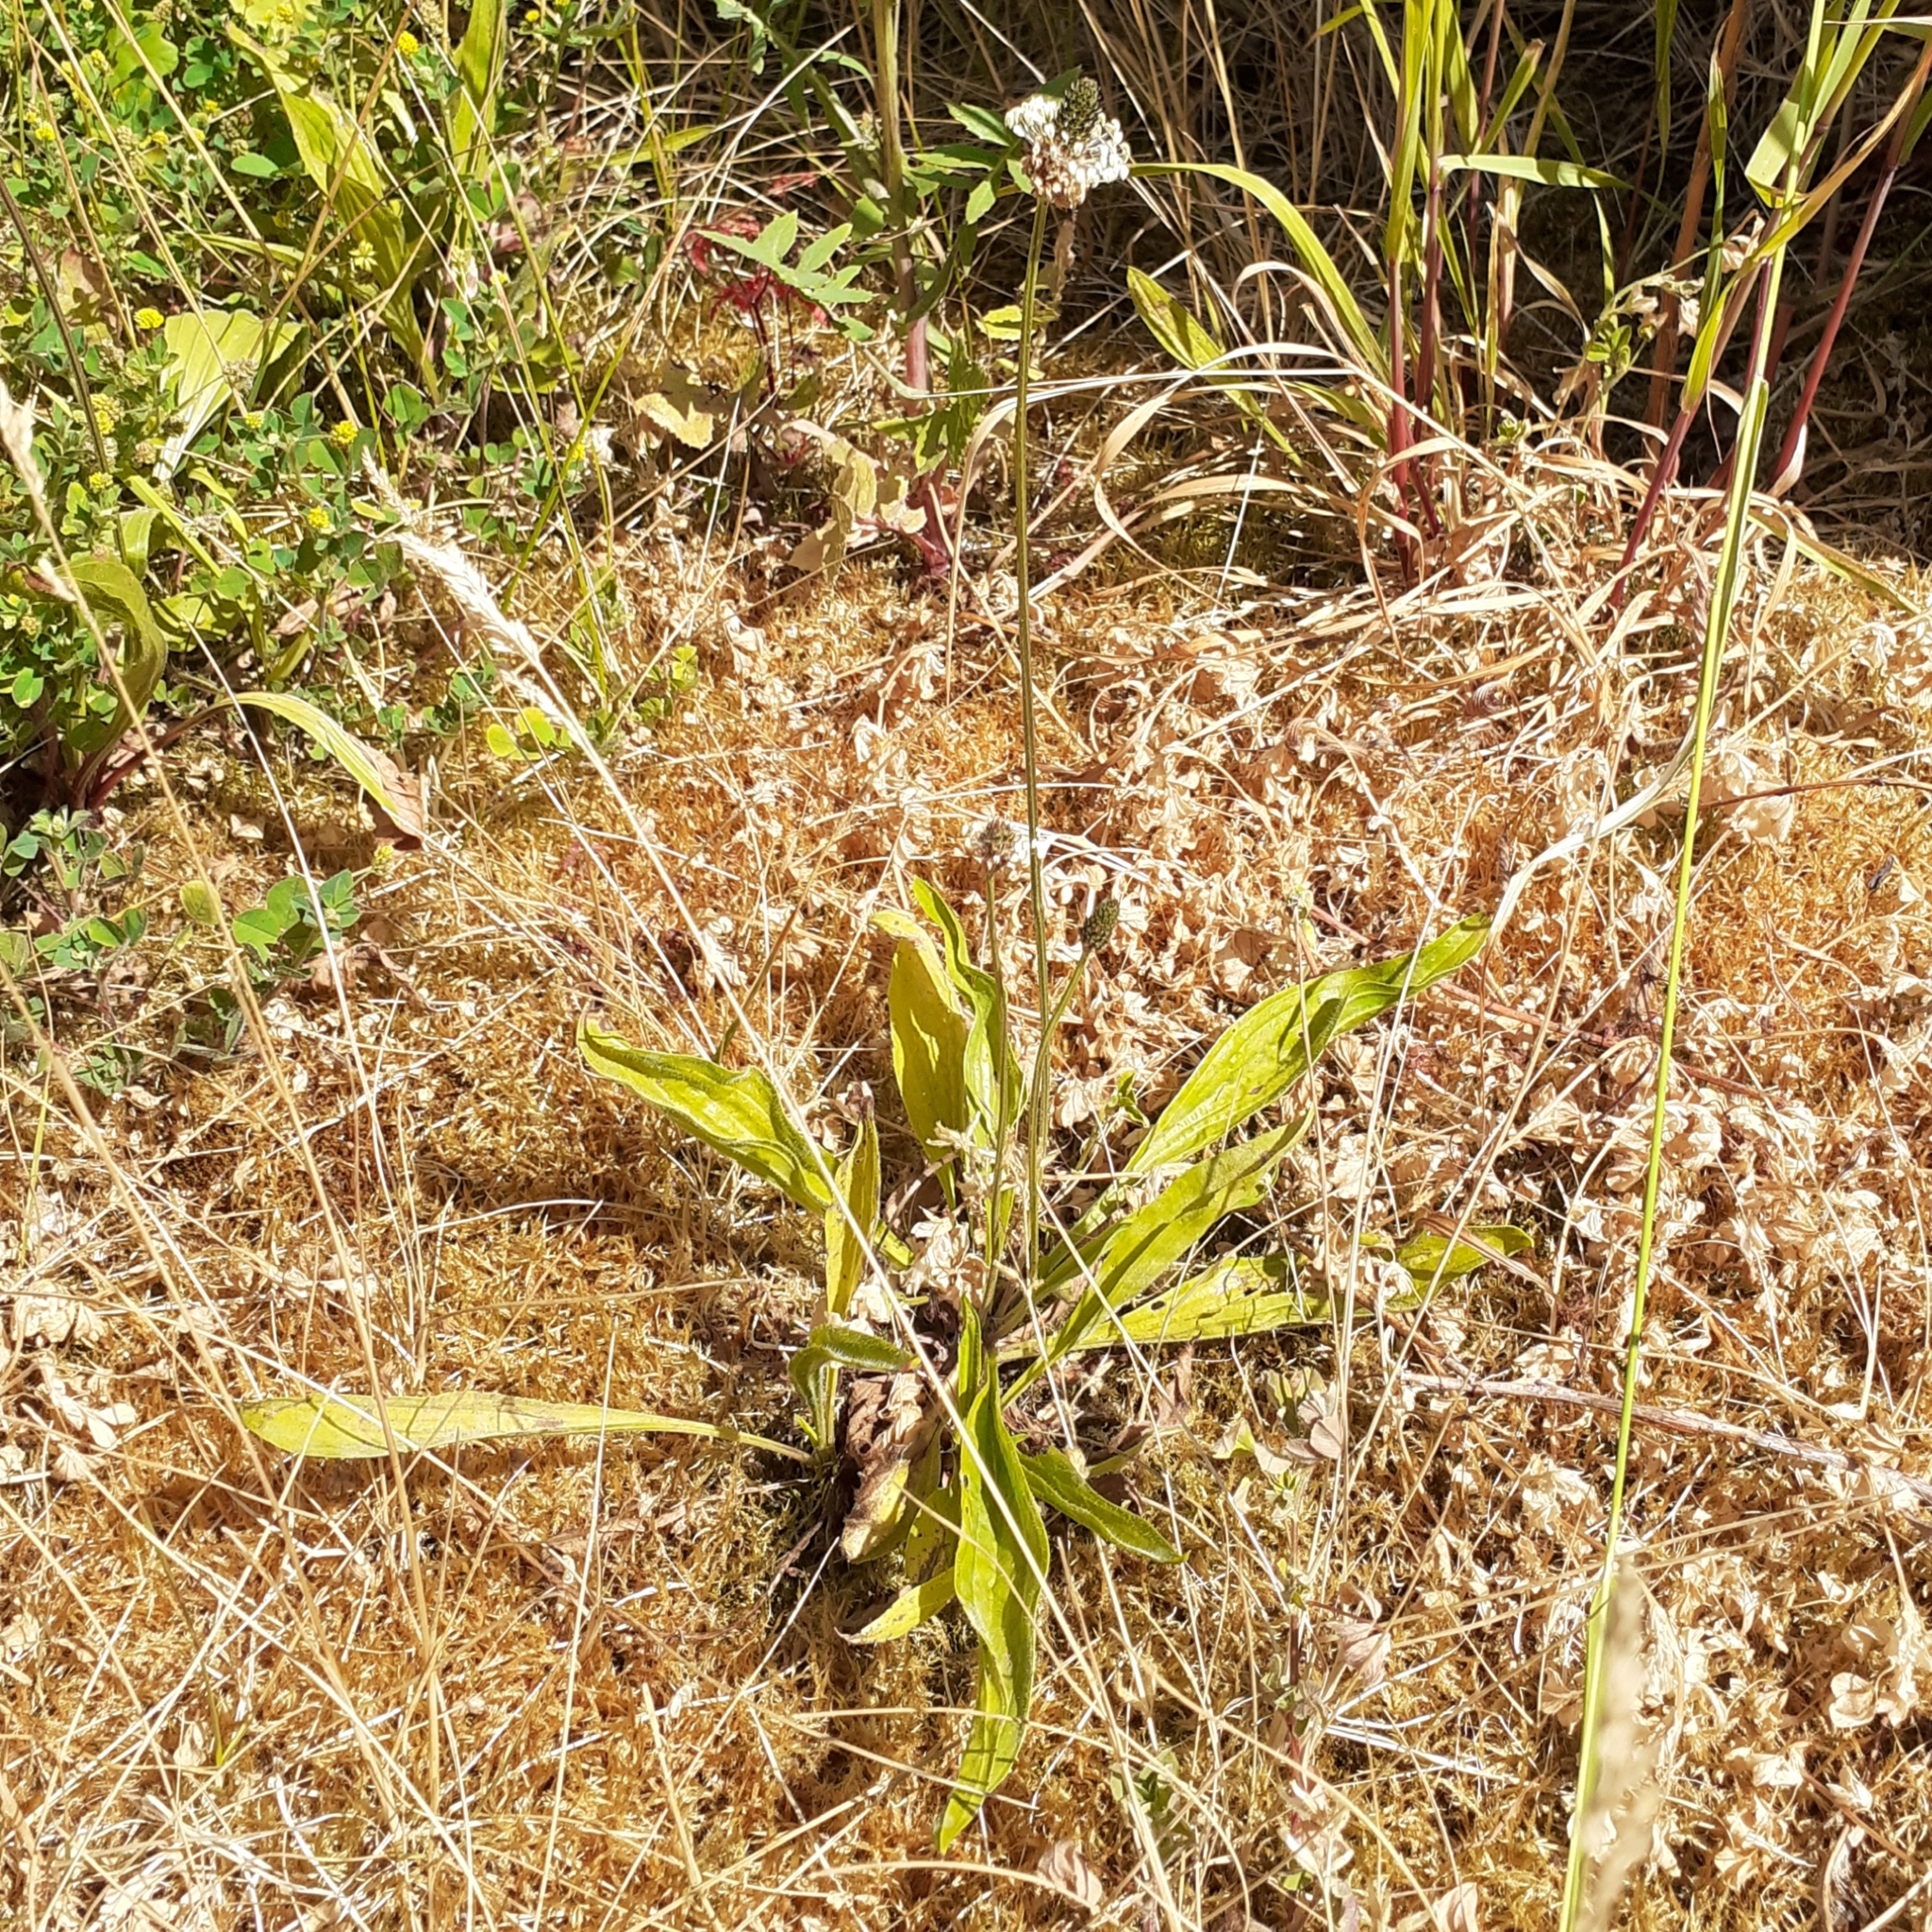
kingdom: Plantae
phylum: Tracheophyta
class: Magnoliopsida
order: Lamiales
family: Plantaginaceae
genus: Plantago
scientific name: Plantago lanceolata
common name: Ribwort plantain
